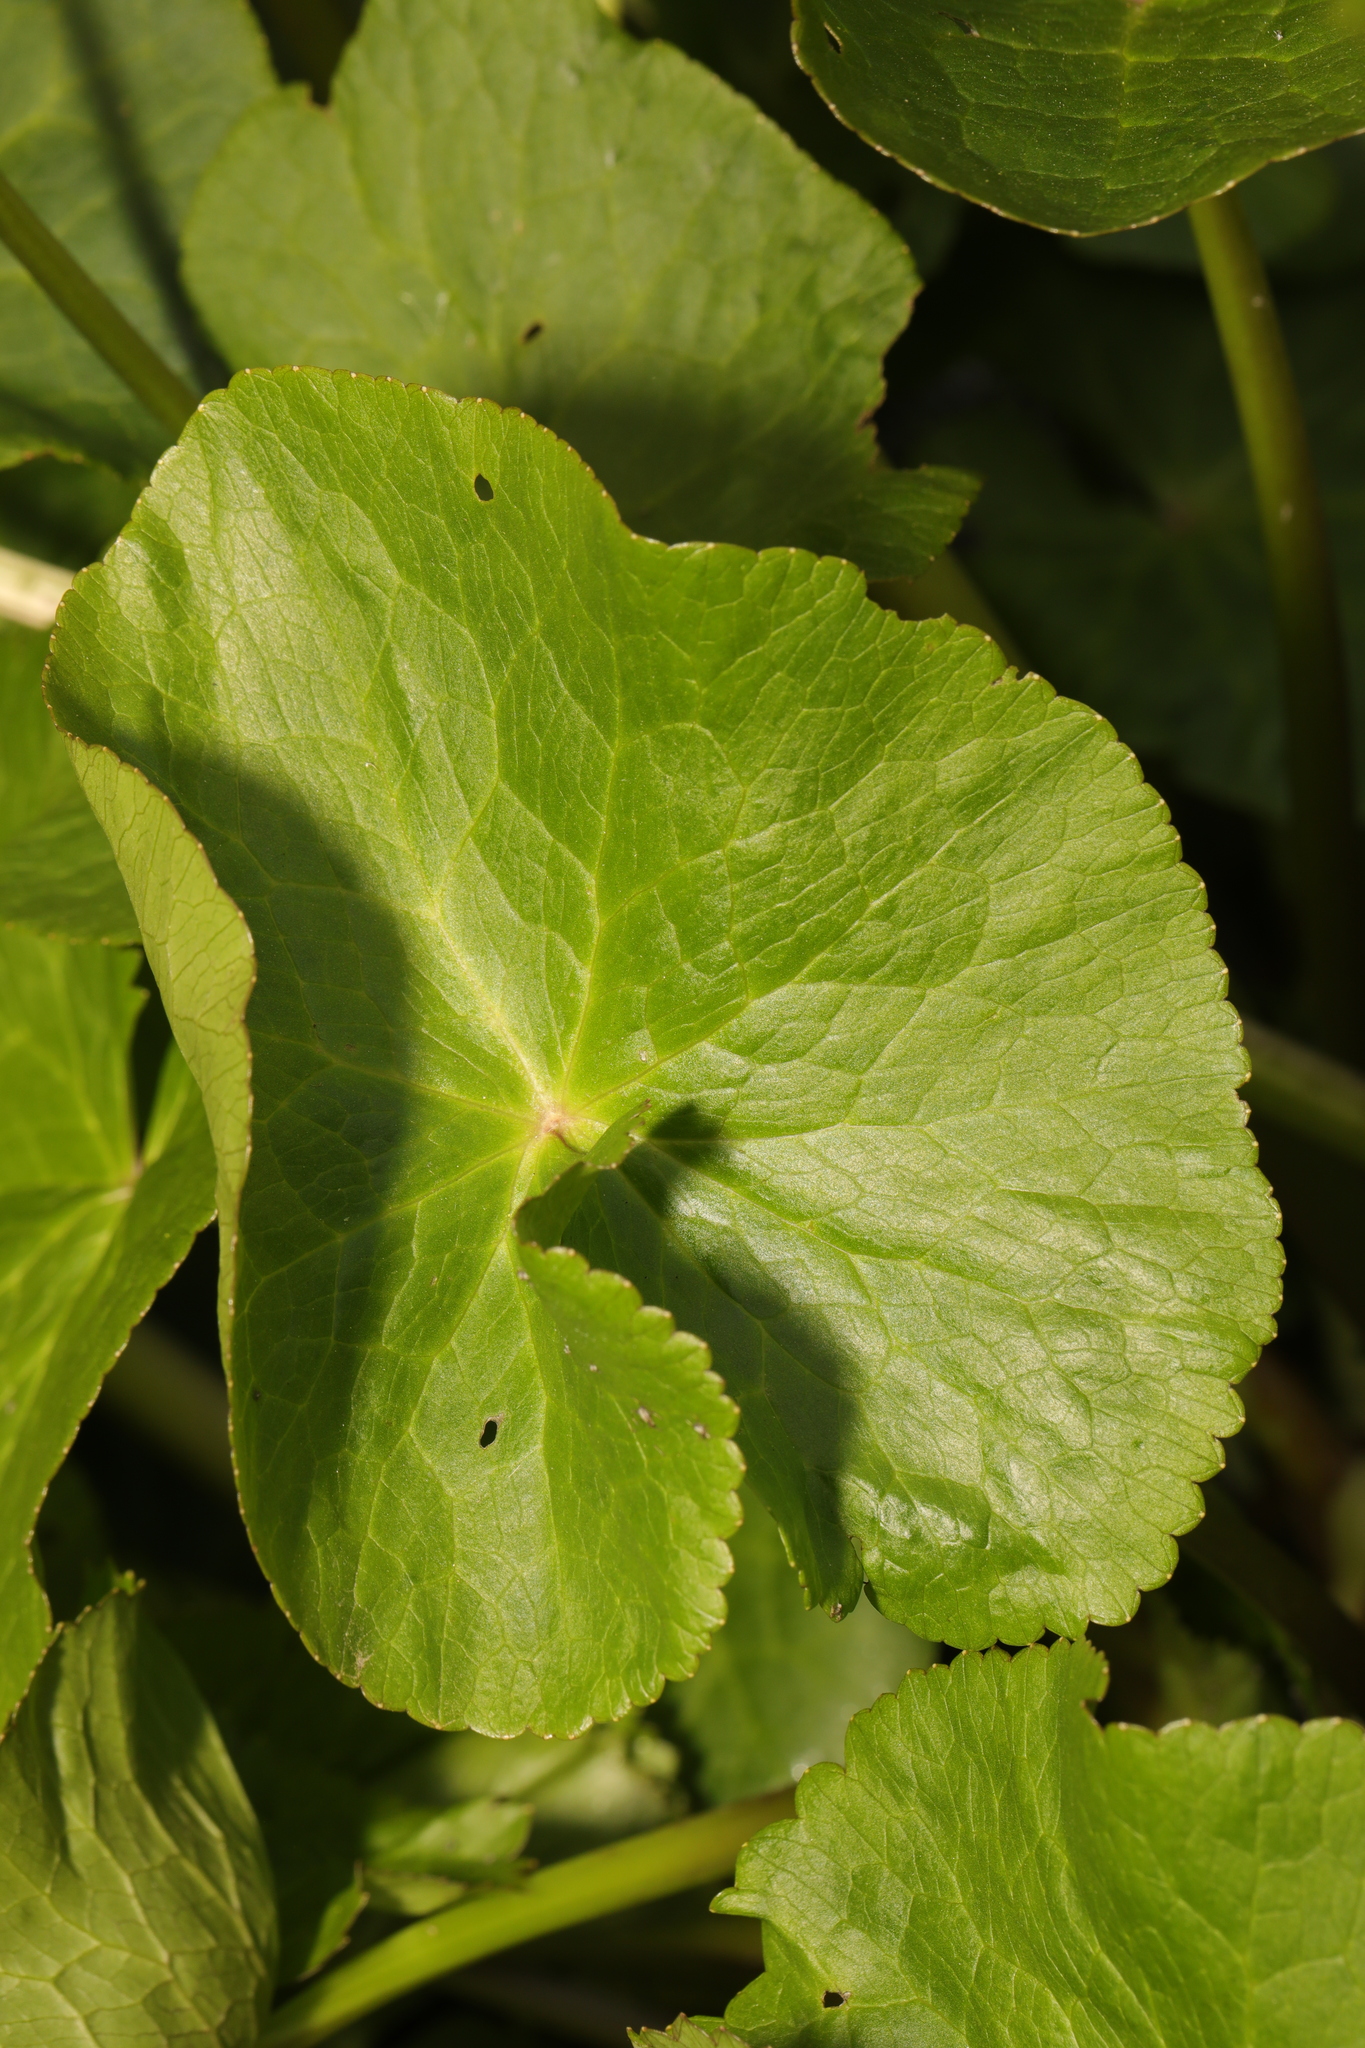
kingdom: Plantae
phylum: Tracheophyta
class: Magnoliopsida
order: Ranunculales
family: Ranunculaceae
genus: Caltha
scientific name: Caltha palustris
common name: Marsh marigold
